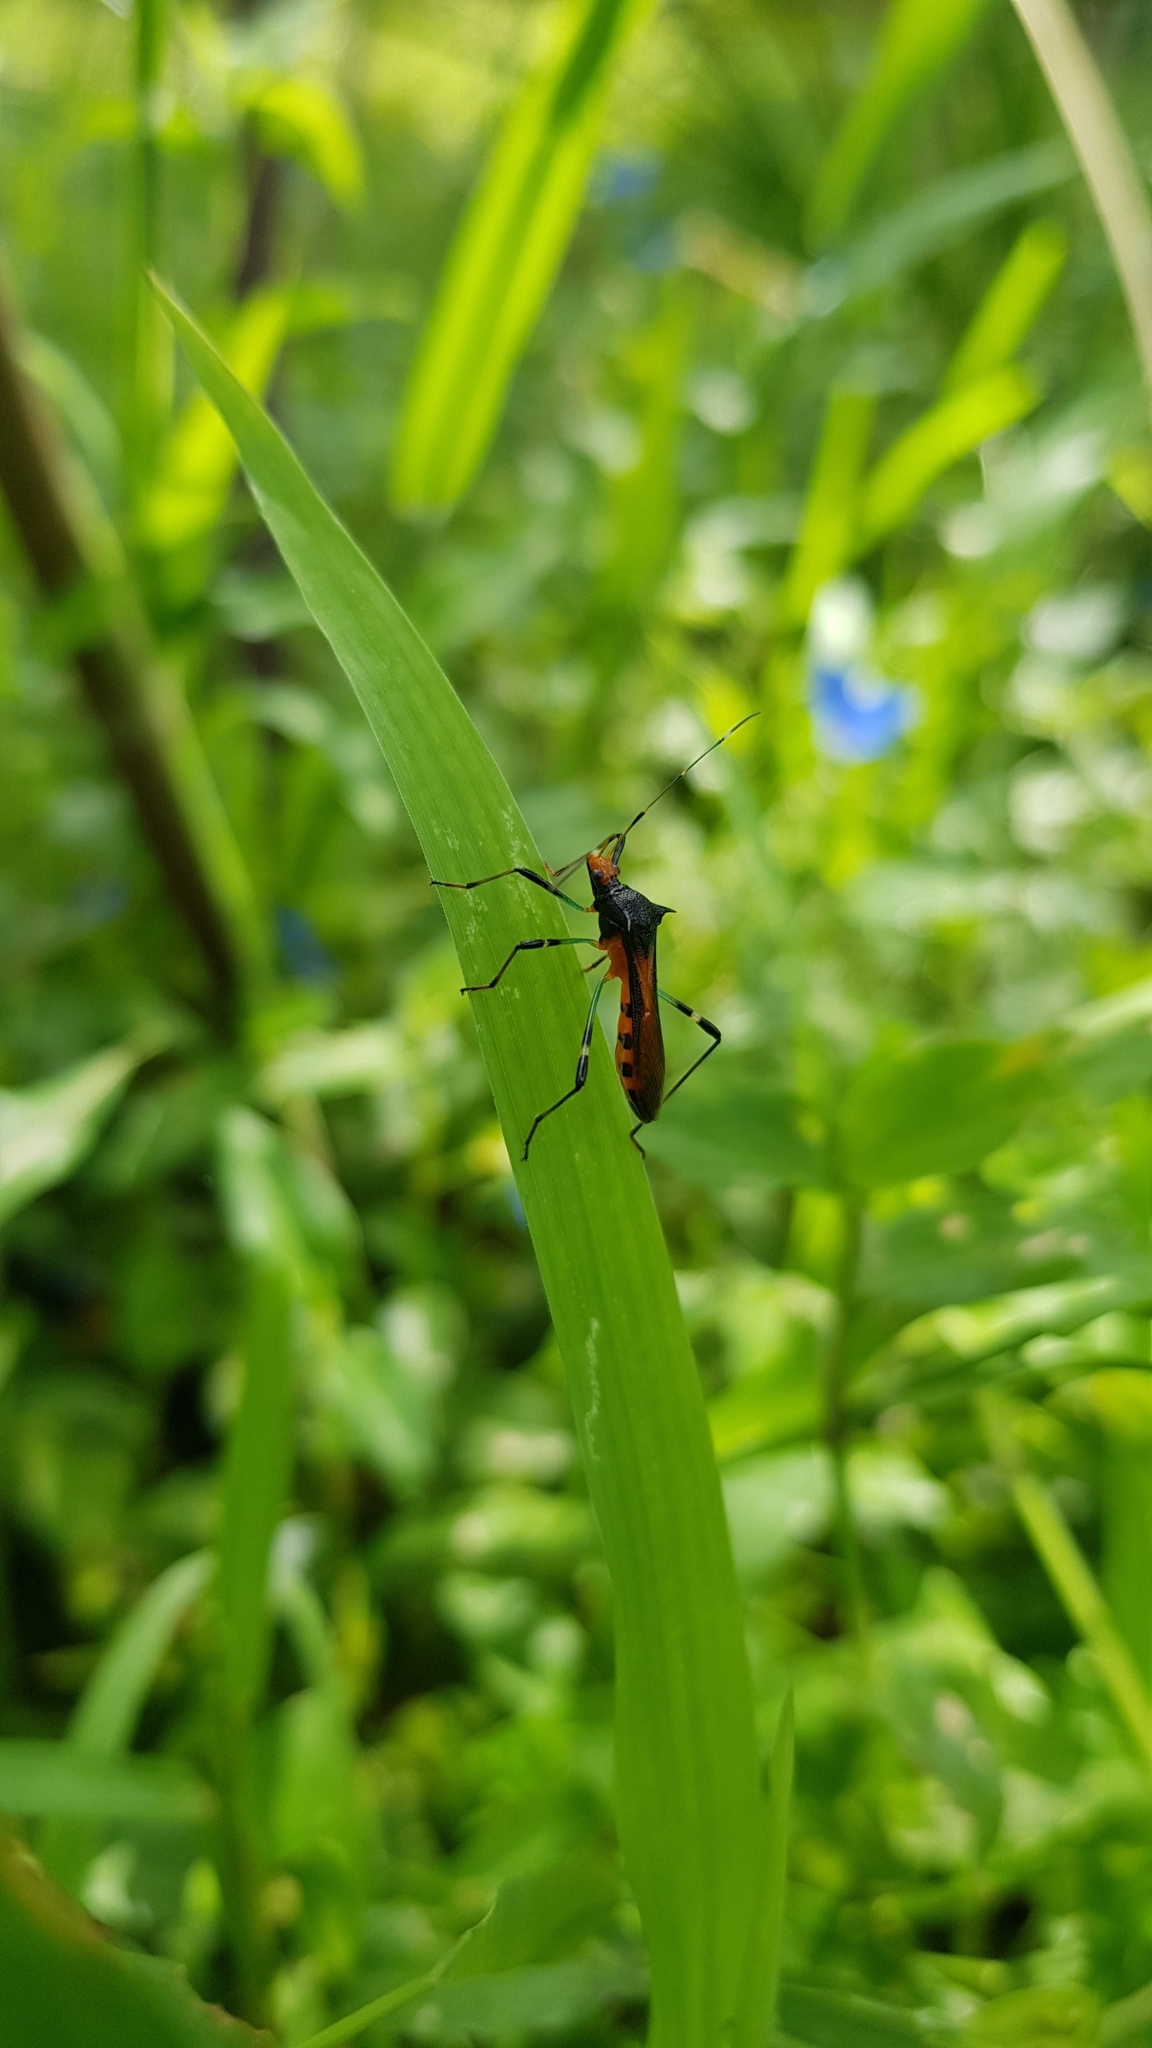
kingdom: Animalia
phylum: Arthropoda
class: Insecta
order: Hemiptera
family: Alydidae
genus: Noliphus
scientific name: Noliphus erythrocephalus
